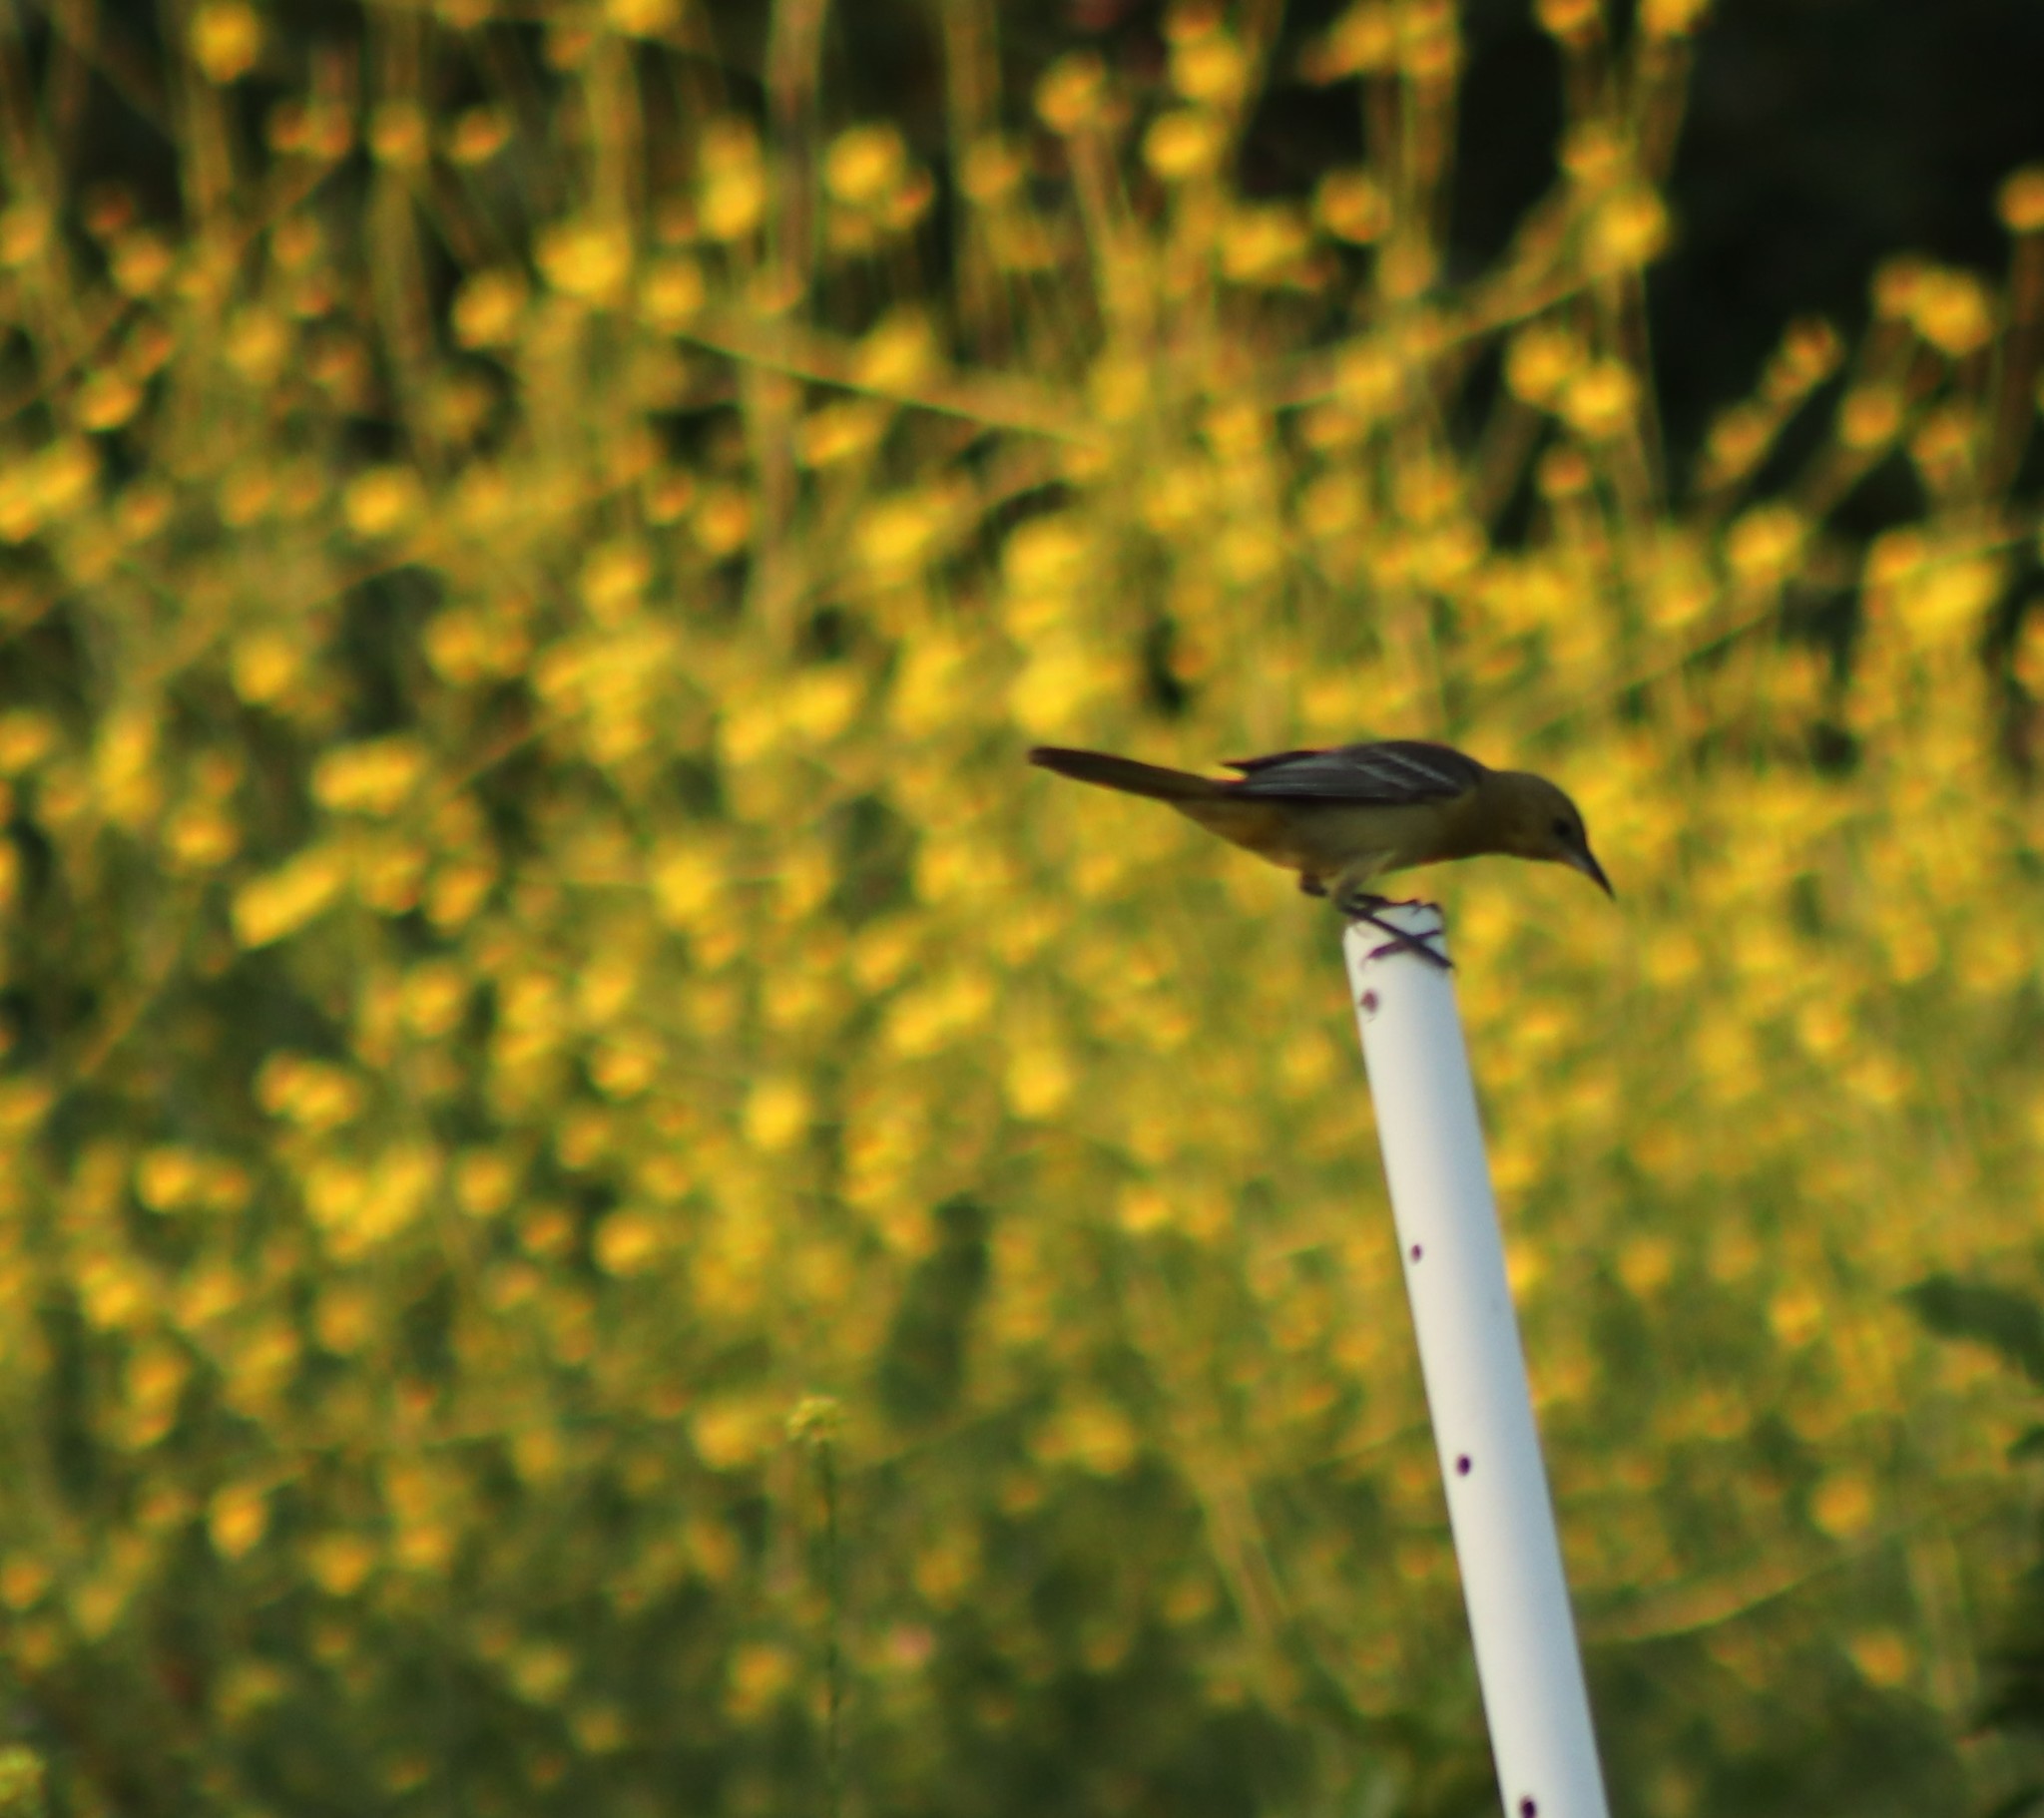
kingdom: Animalia
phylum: Chordata
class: Aves
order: Passeriformes
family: Icteridae
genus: Icterus
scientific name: Icterus cucullatus
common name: Hooded oriole
